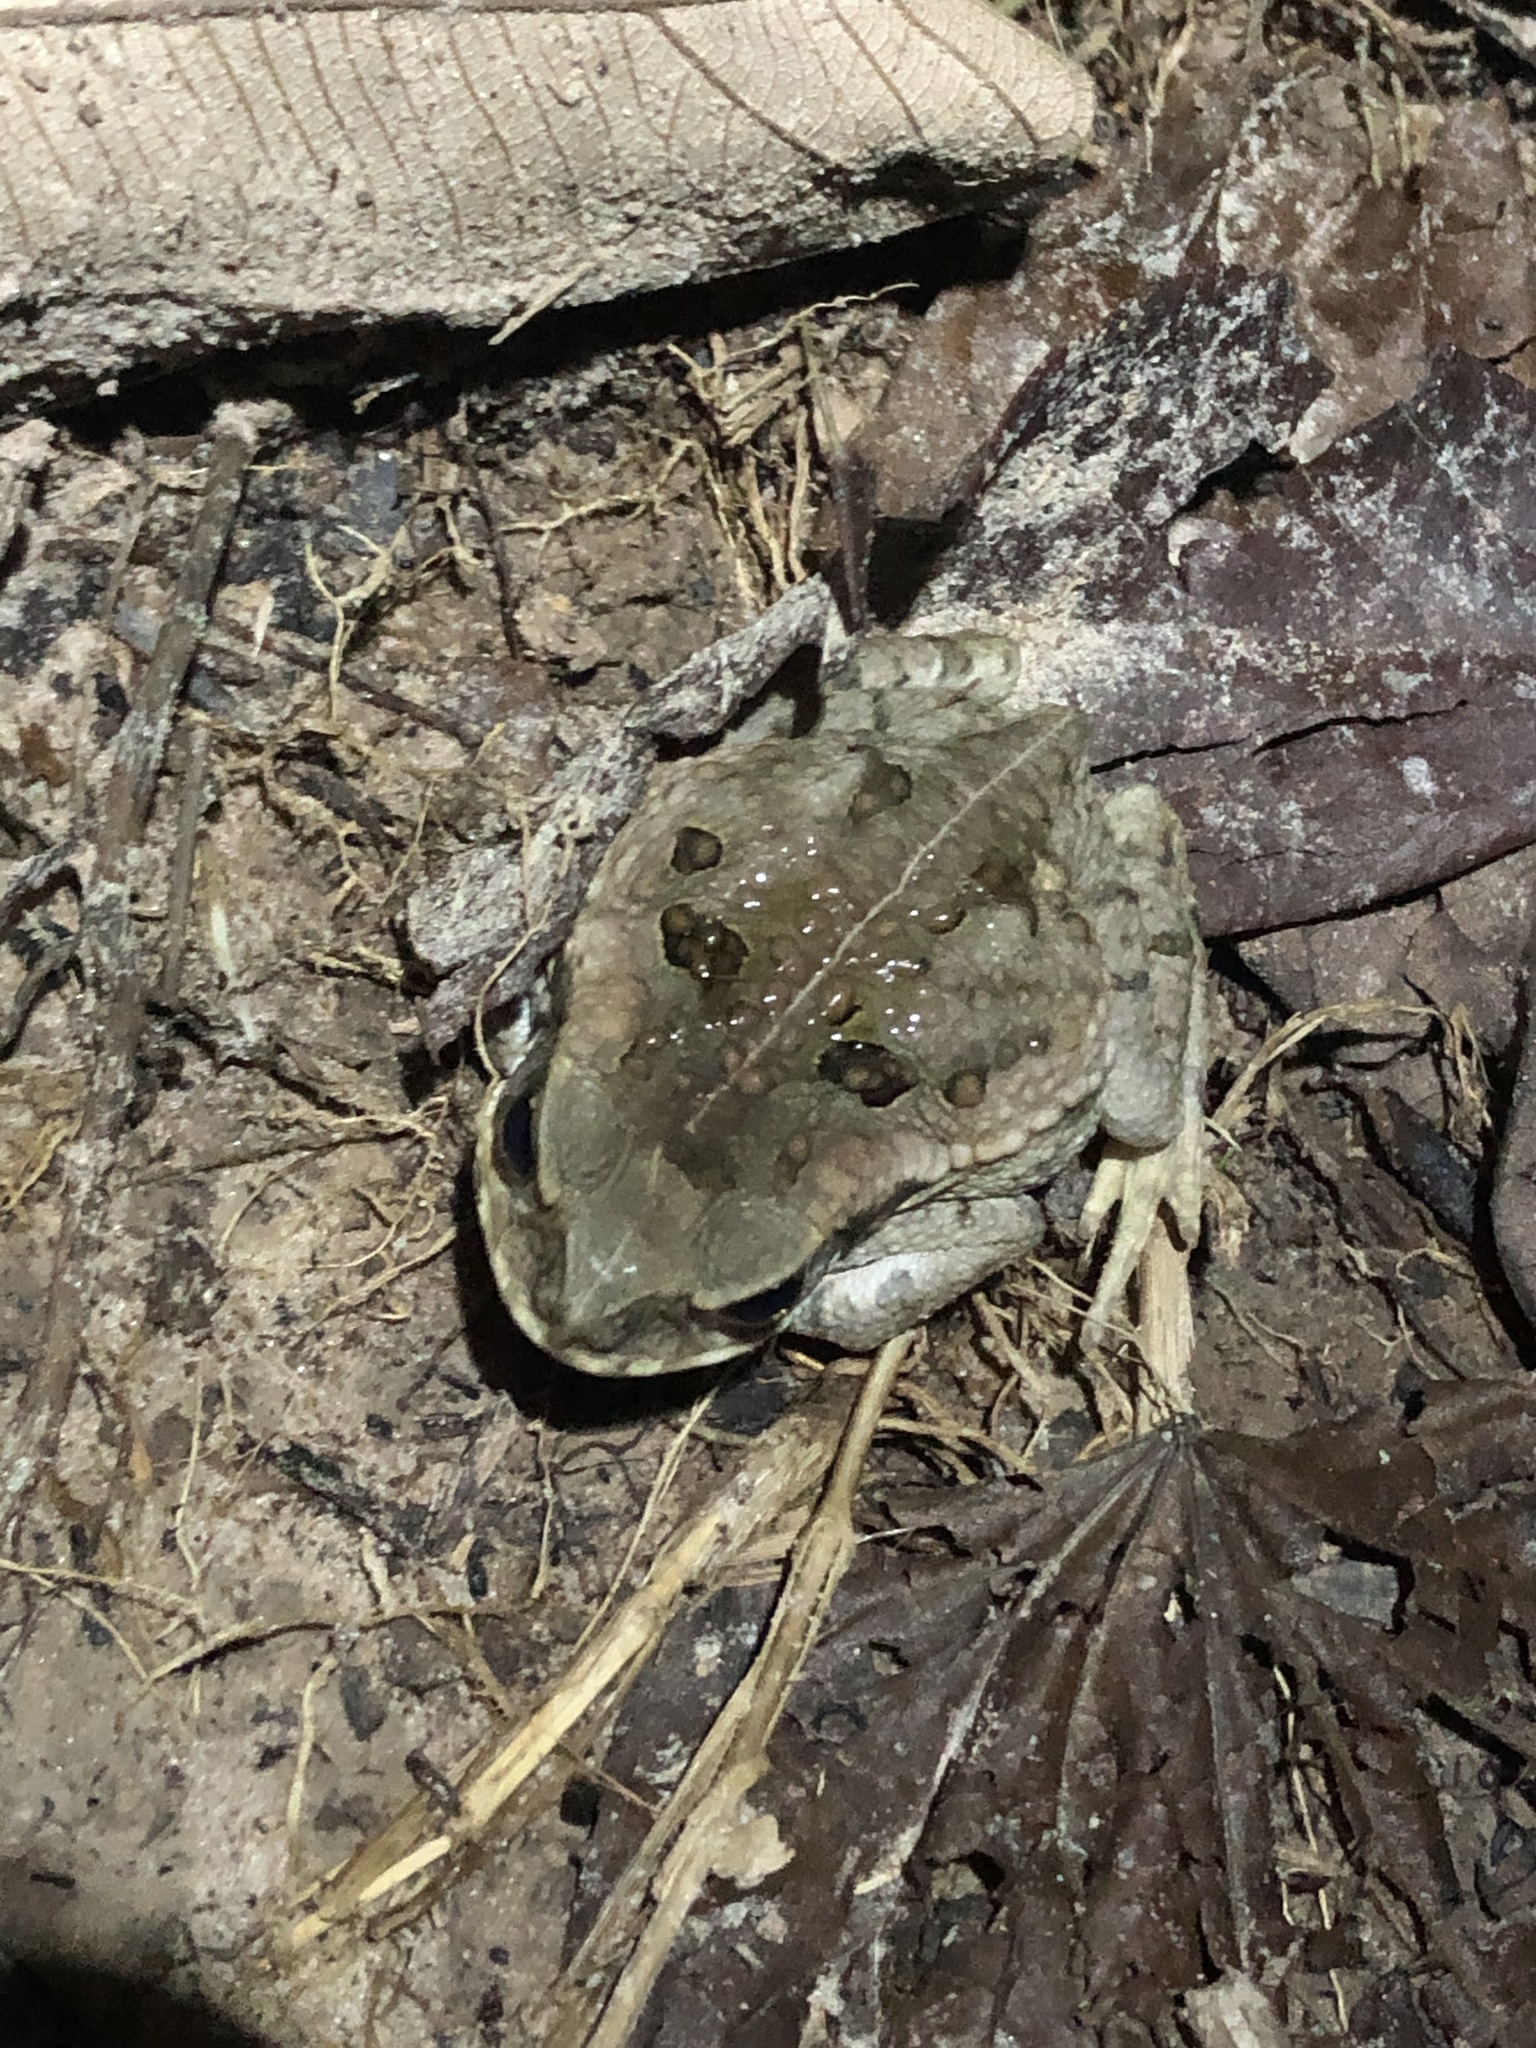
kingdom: Animalia
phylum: Chordata
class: Amphibia
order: Anura
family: Bufonidae
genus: Rhinella
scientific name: Rhinella marina
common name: Cane toad
